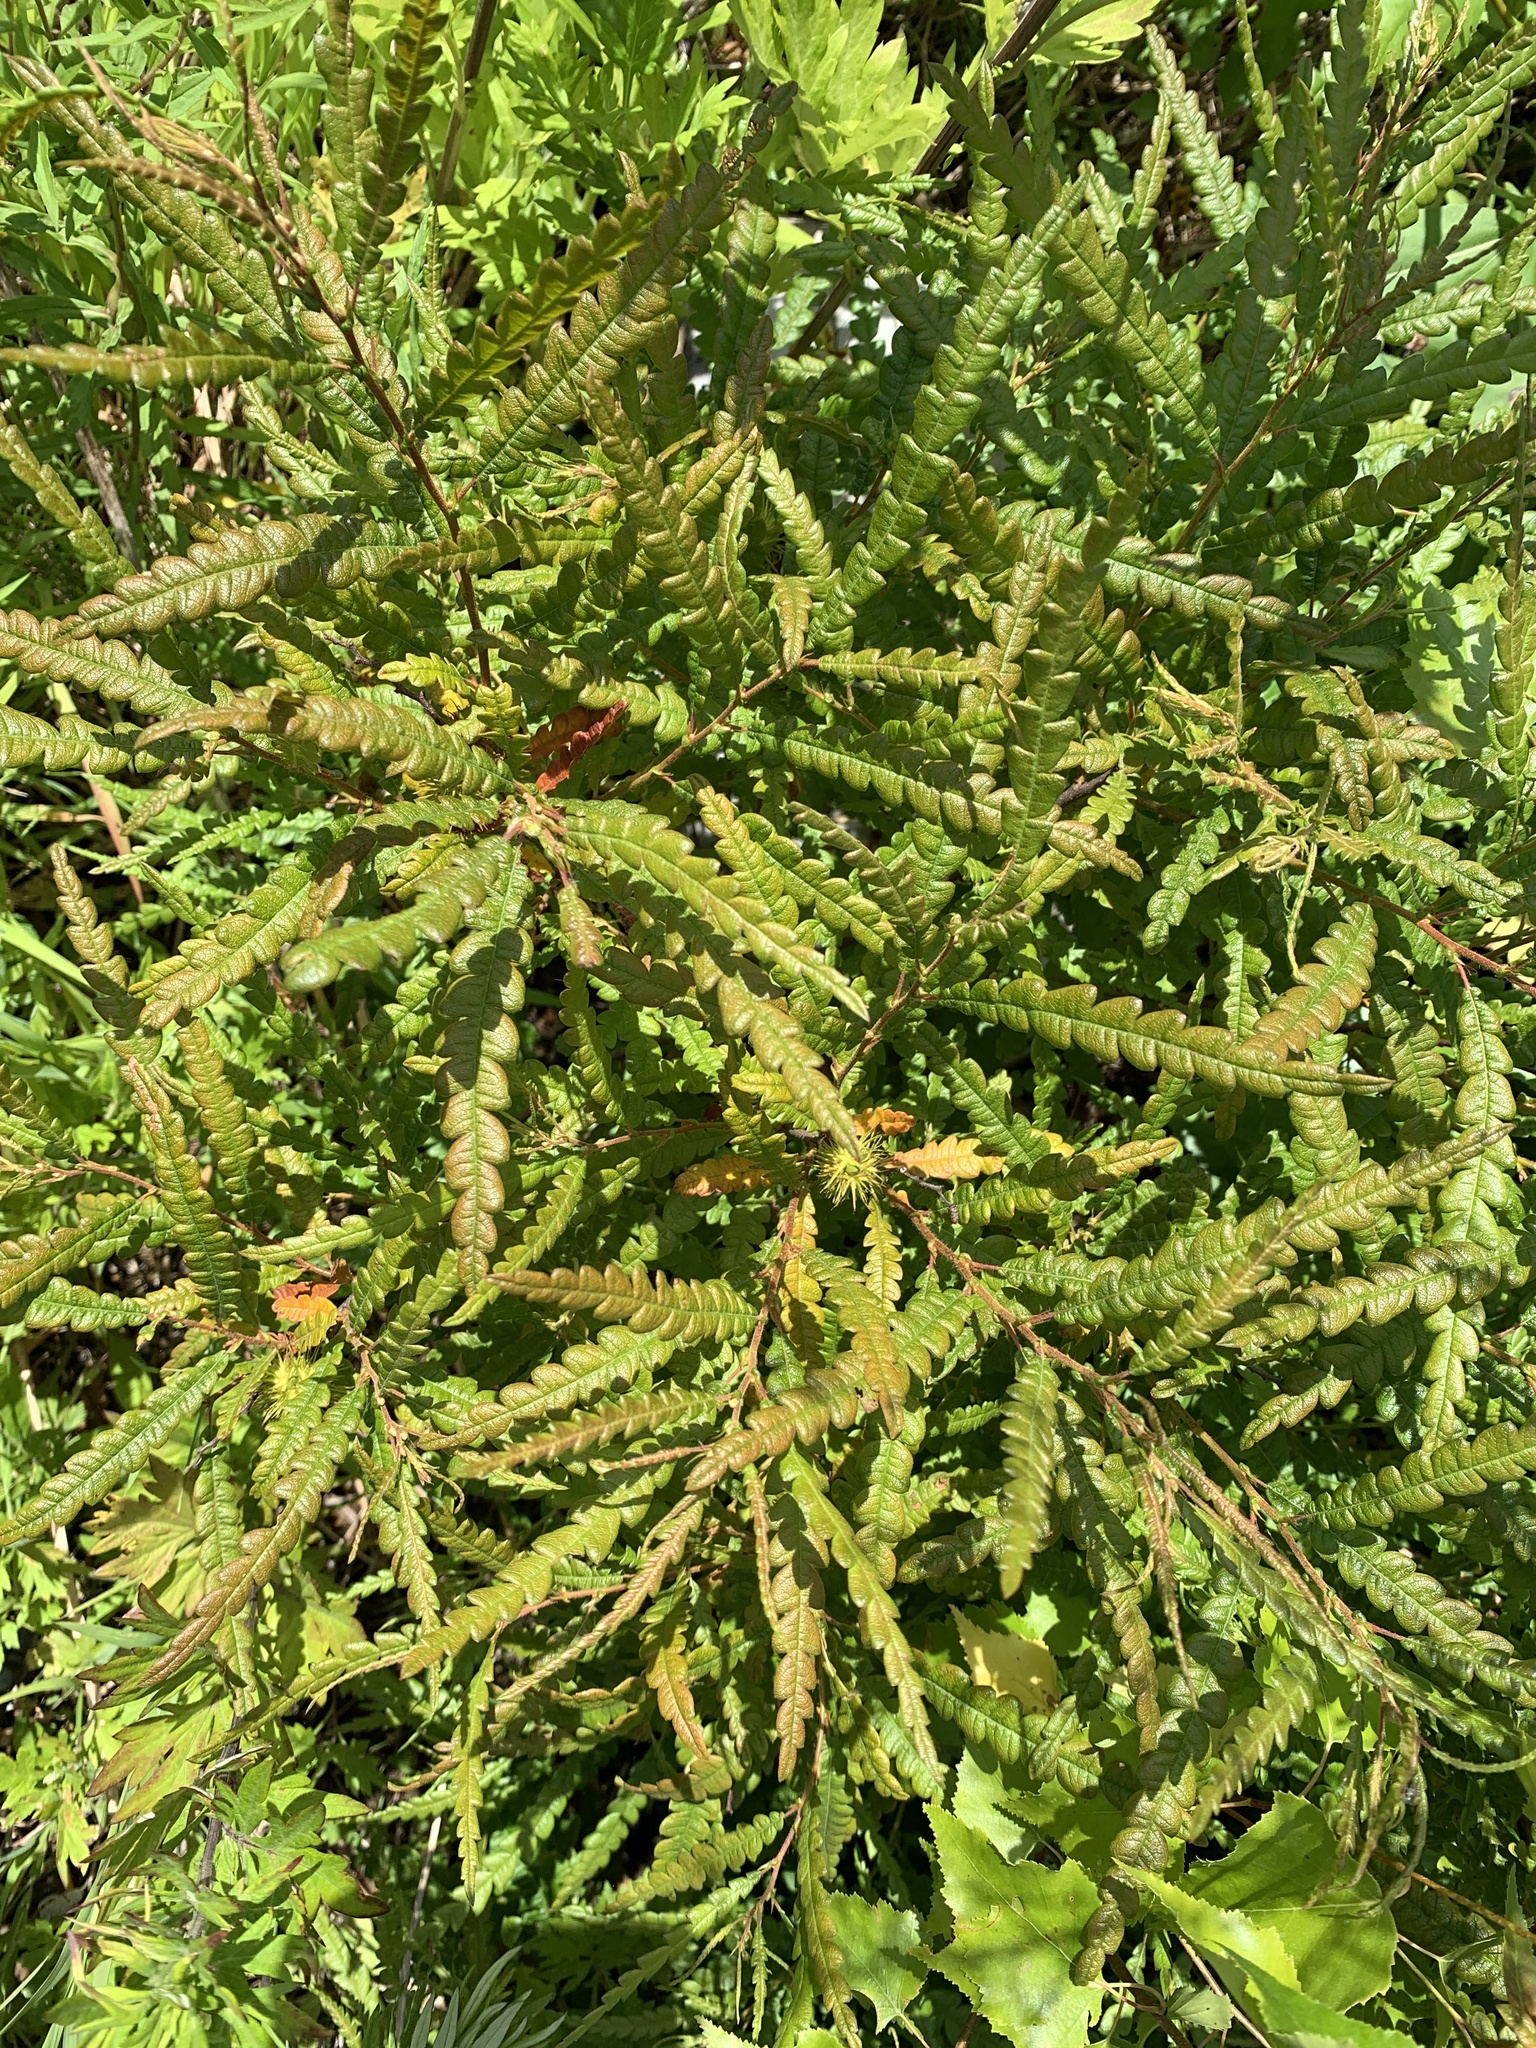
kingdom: Plantae
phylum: Tracheophyta
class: Magnoliopsida
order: Fagales
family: Myricaceae
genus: Comptonia
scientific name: Comptonia peregrina
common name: Sweet-fern
